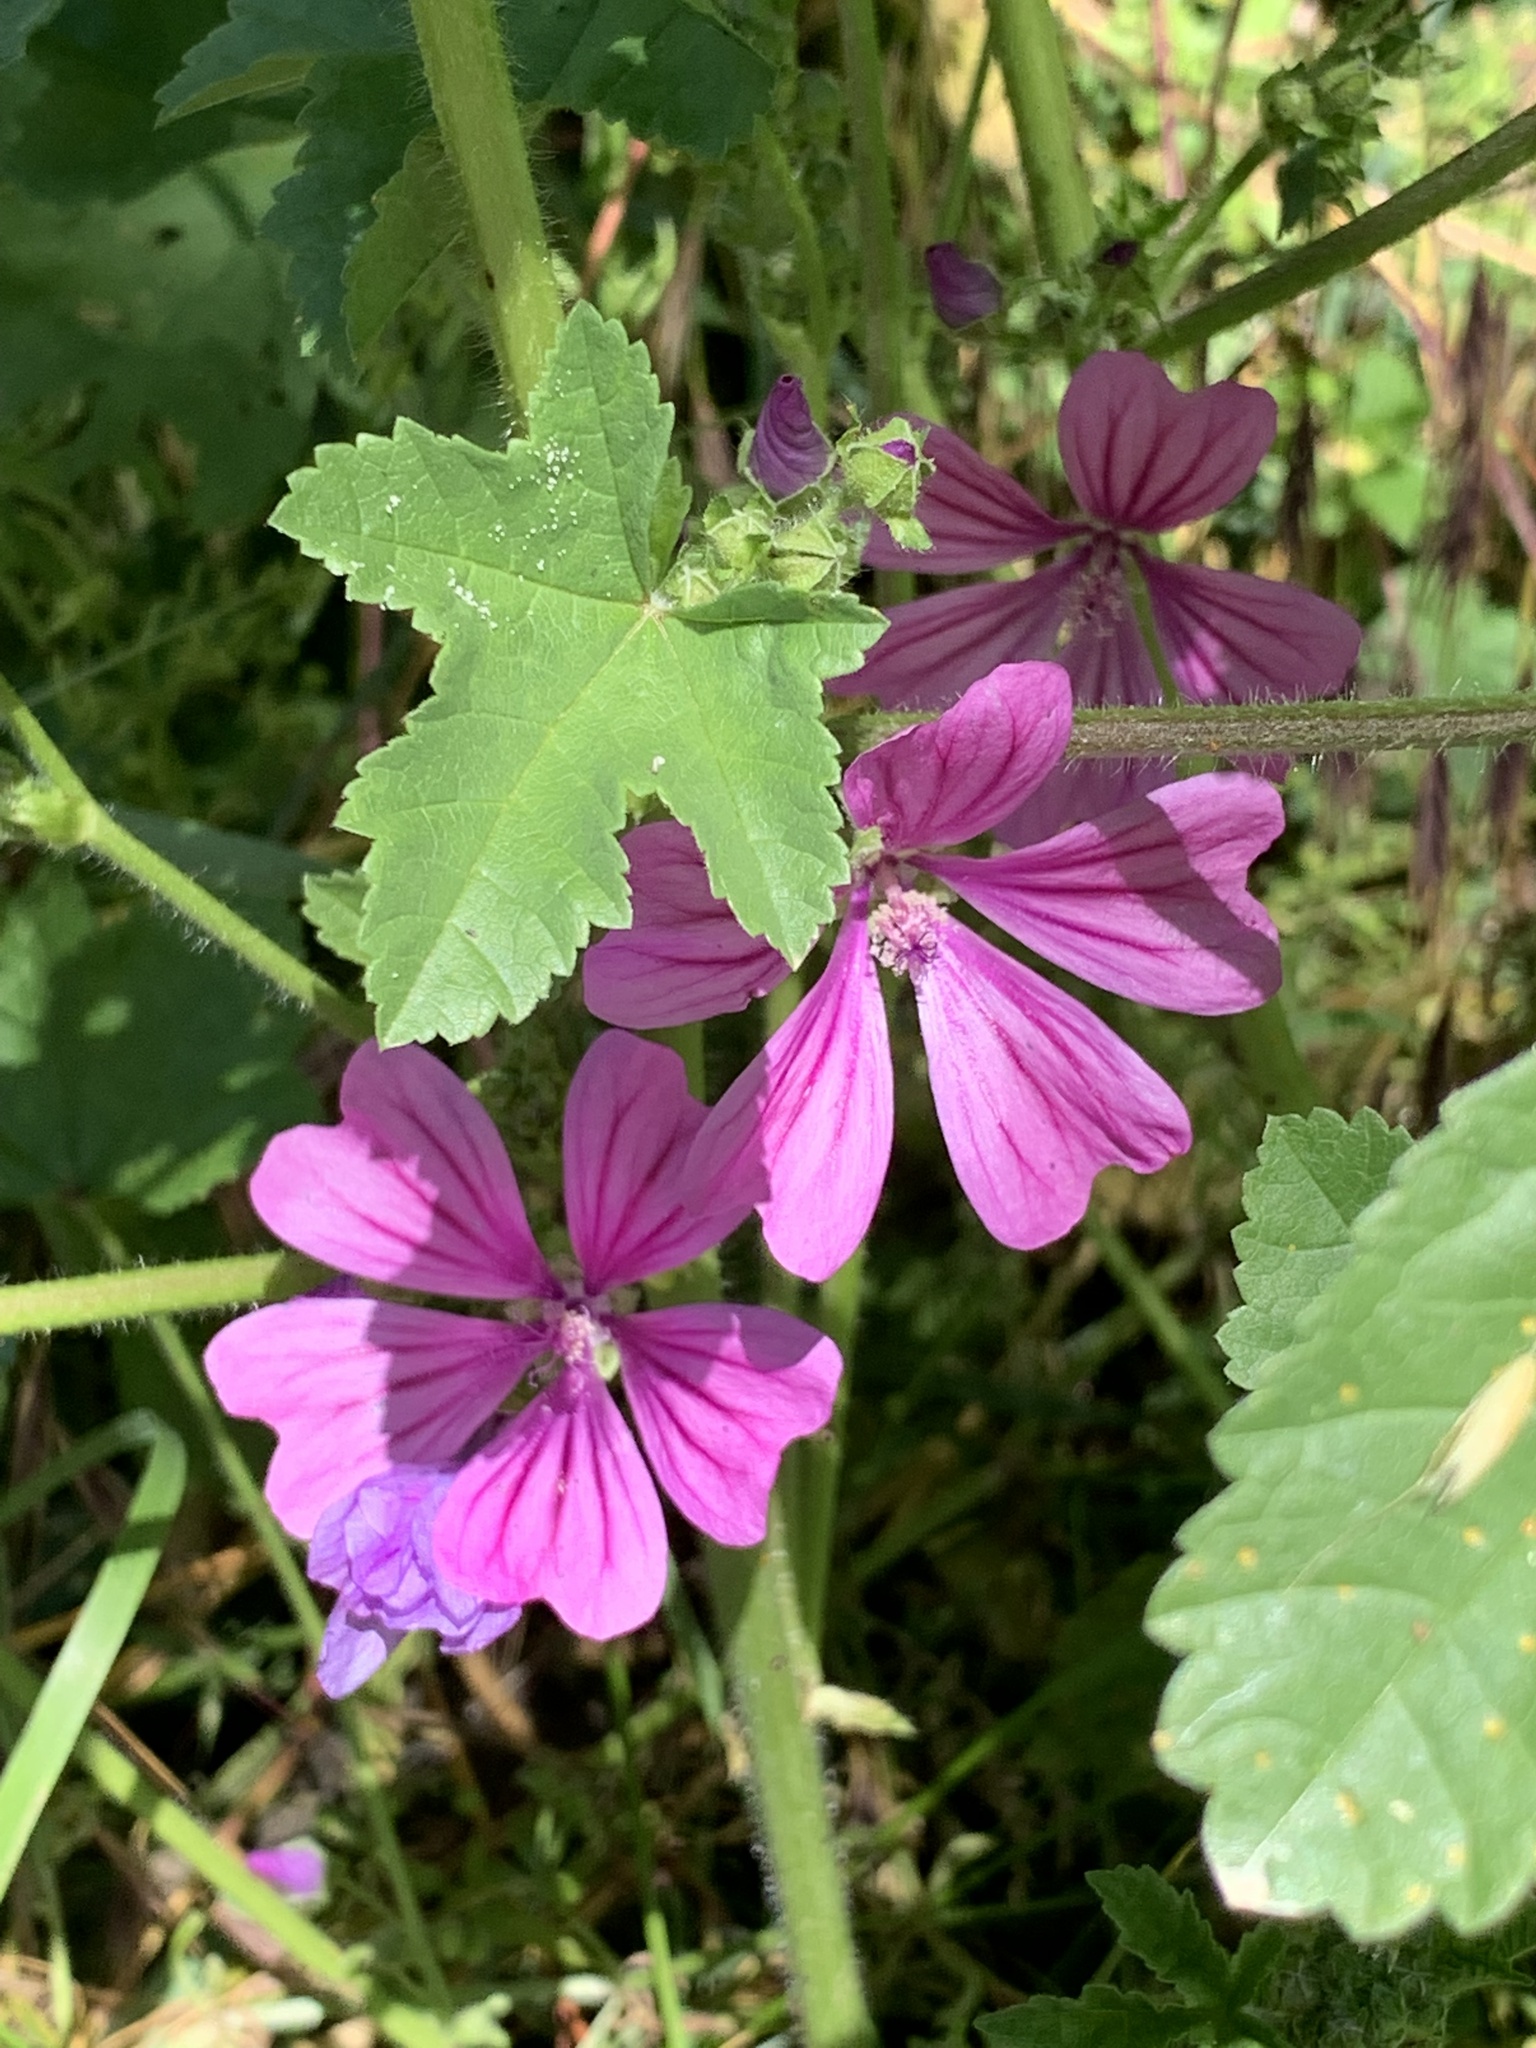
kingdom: Plantae
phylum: Tracheophyta
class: Magnoliopsida
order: Malvales
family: Malvaceae
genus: Malva
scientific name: Malva sylvestris
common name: Common mallow
